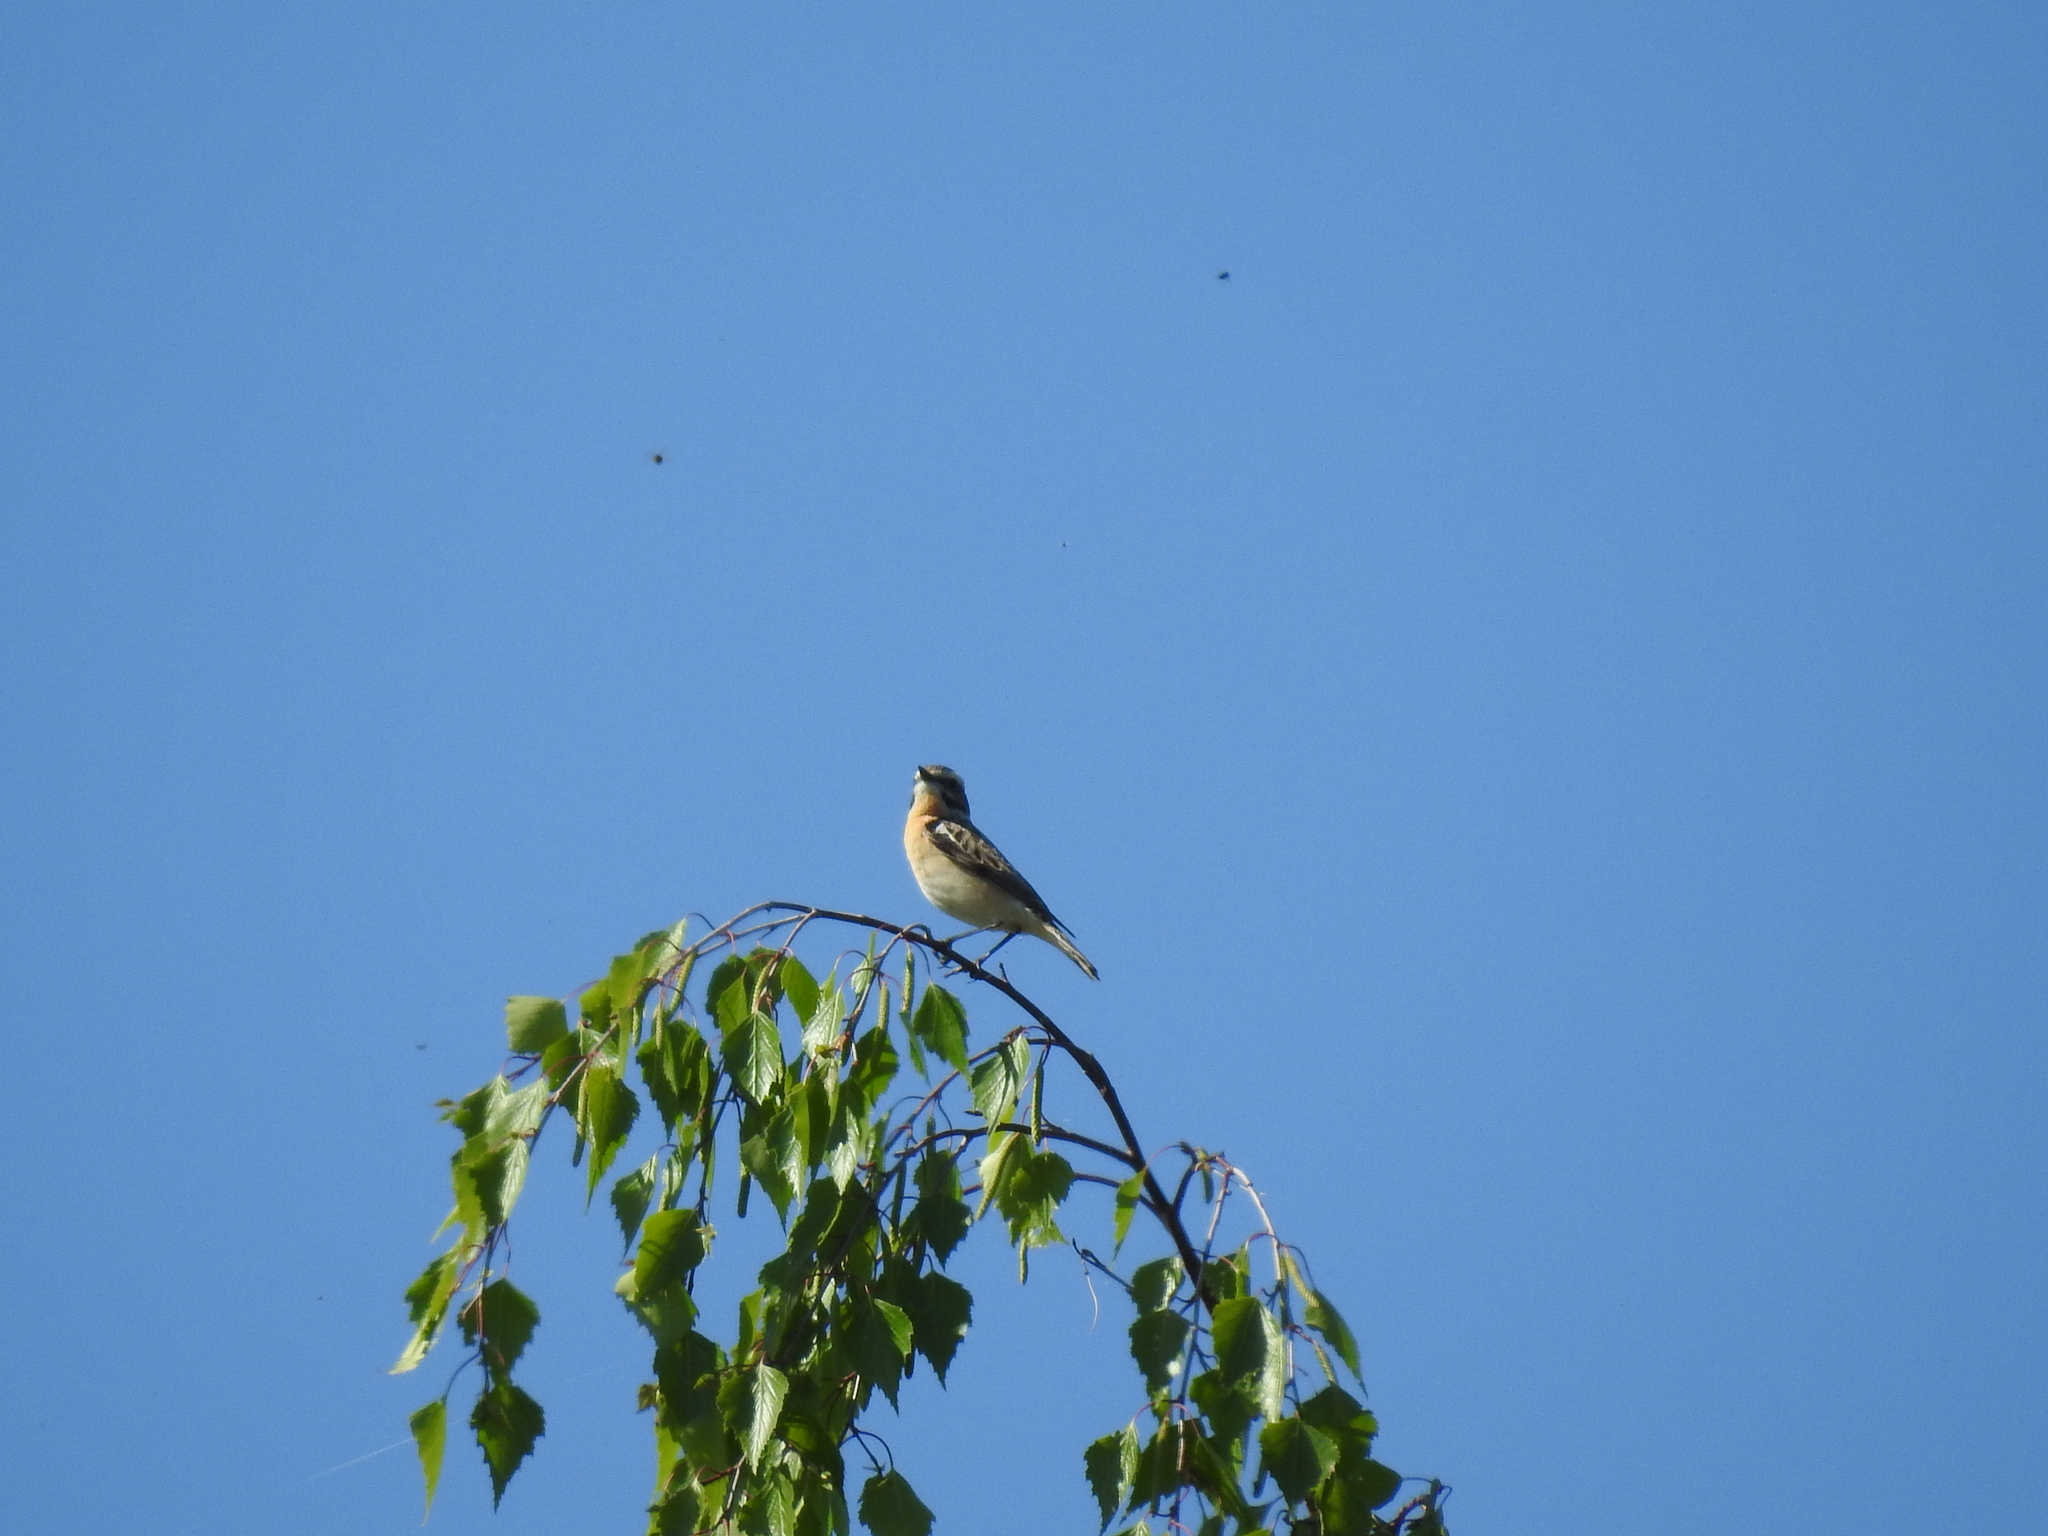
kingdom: Animalia
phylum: Chordata
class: Aves
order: Passeriformes
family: Muscicapidae
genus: Saxicola
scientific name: Saxicola rubetra
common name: Whinchat
